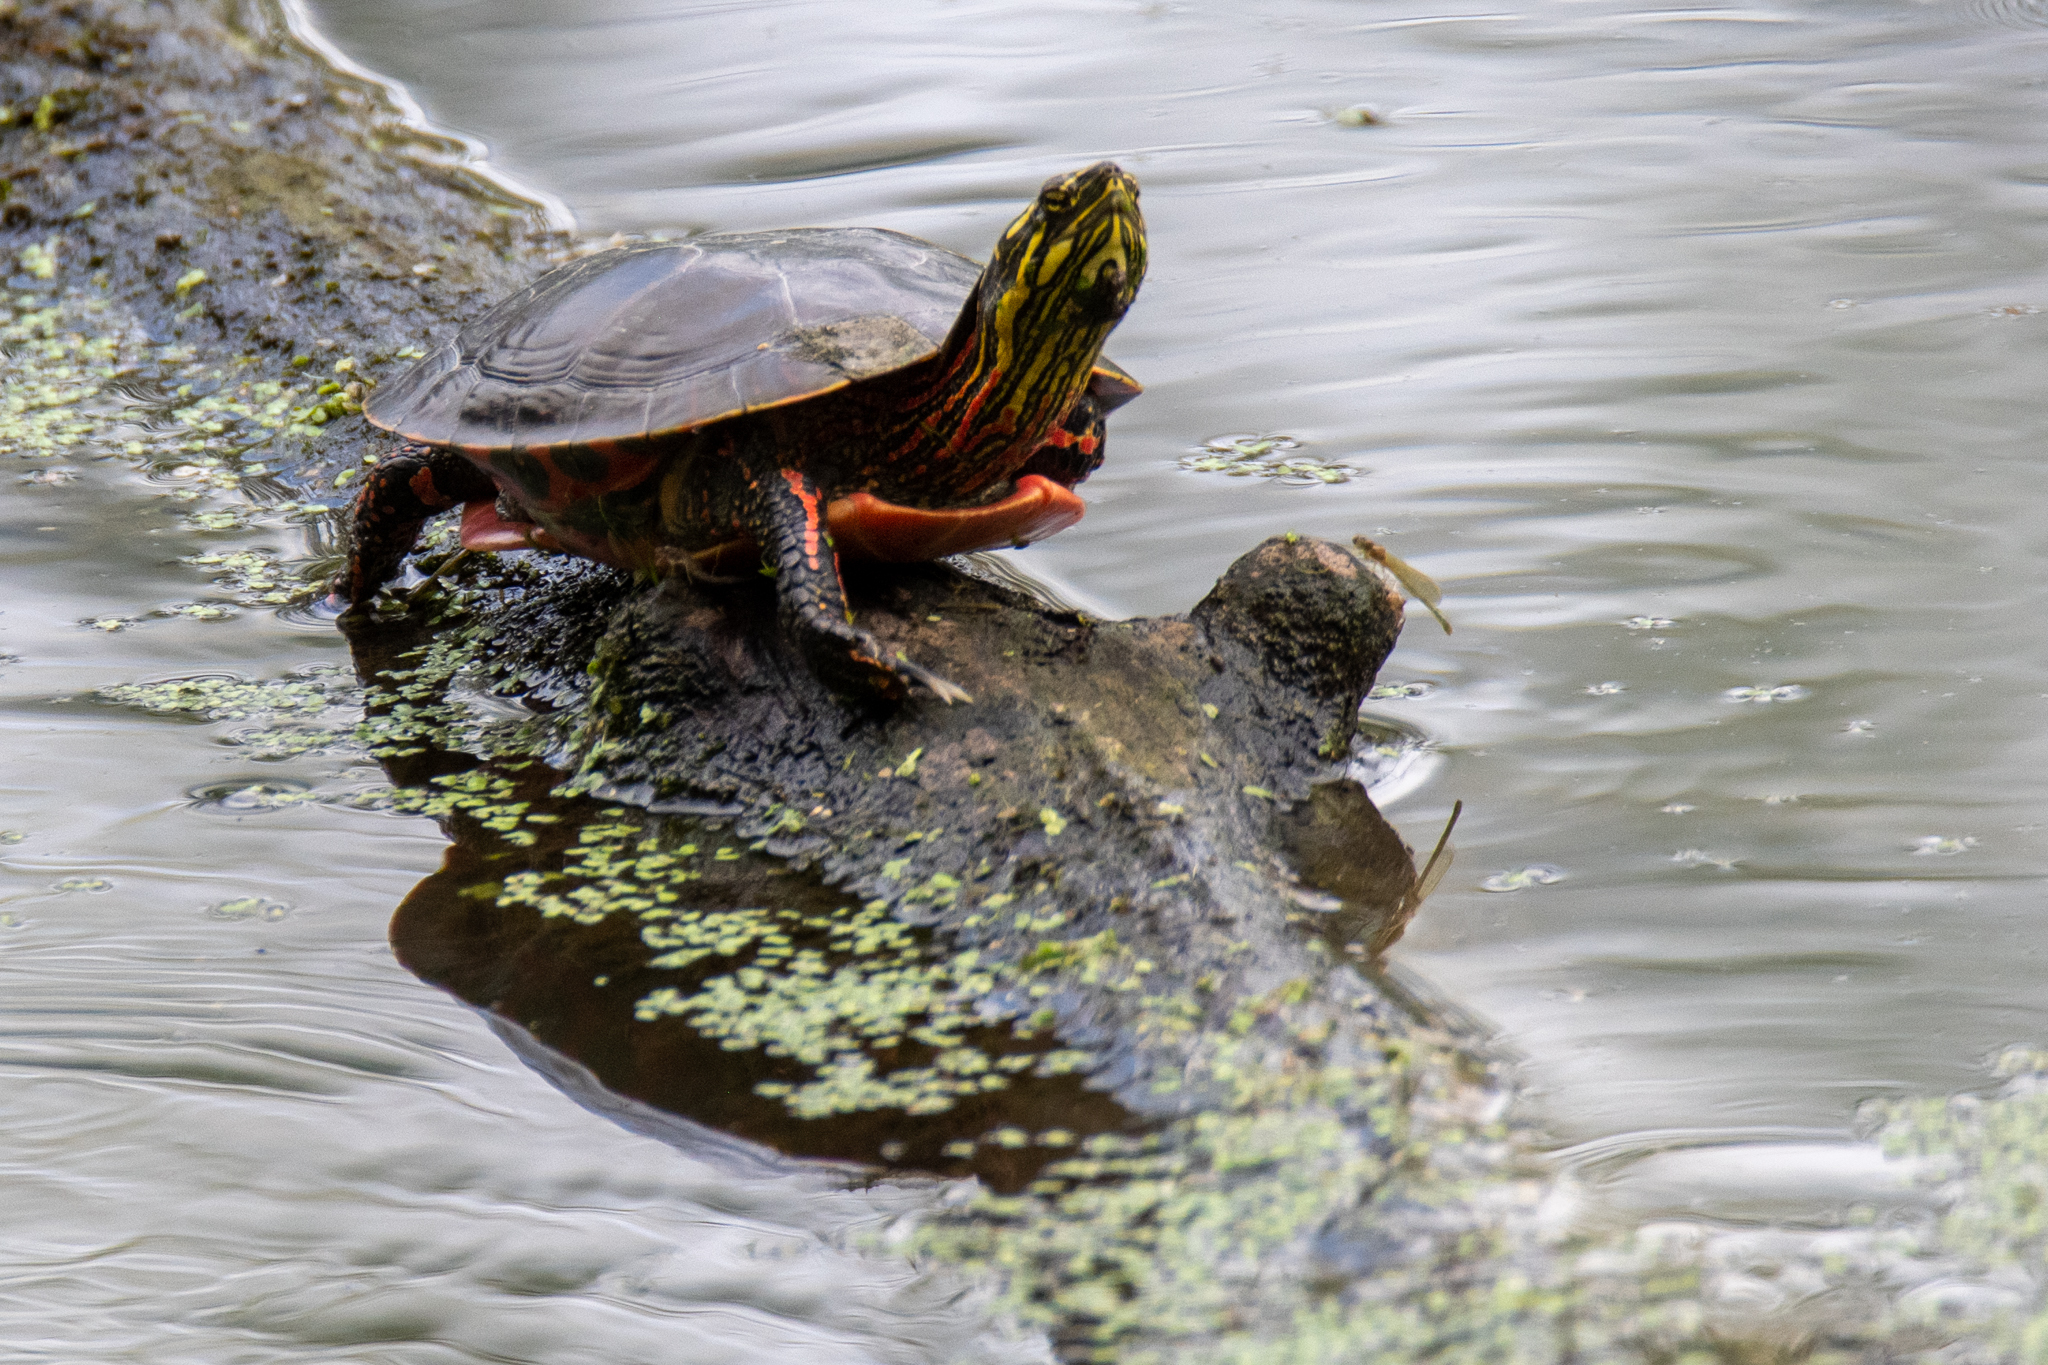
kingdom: Animalia
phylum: Chordata
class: Testudines
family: Emydidae
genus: Chrysemys
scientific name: Chrysemys picta
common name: Painted turtle
